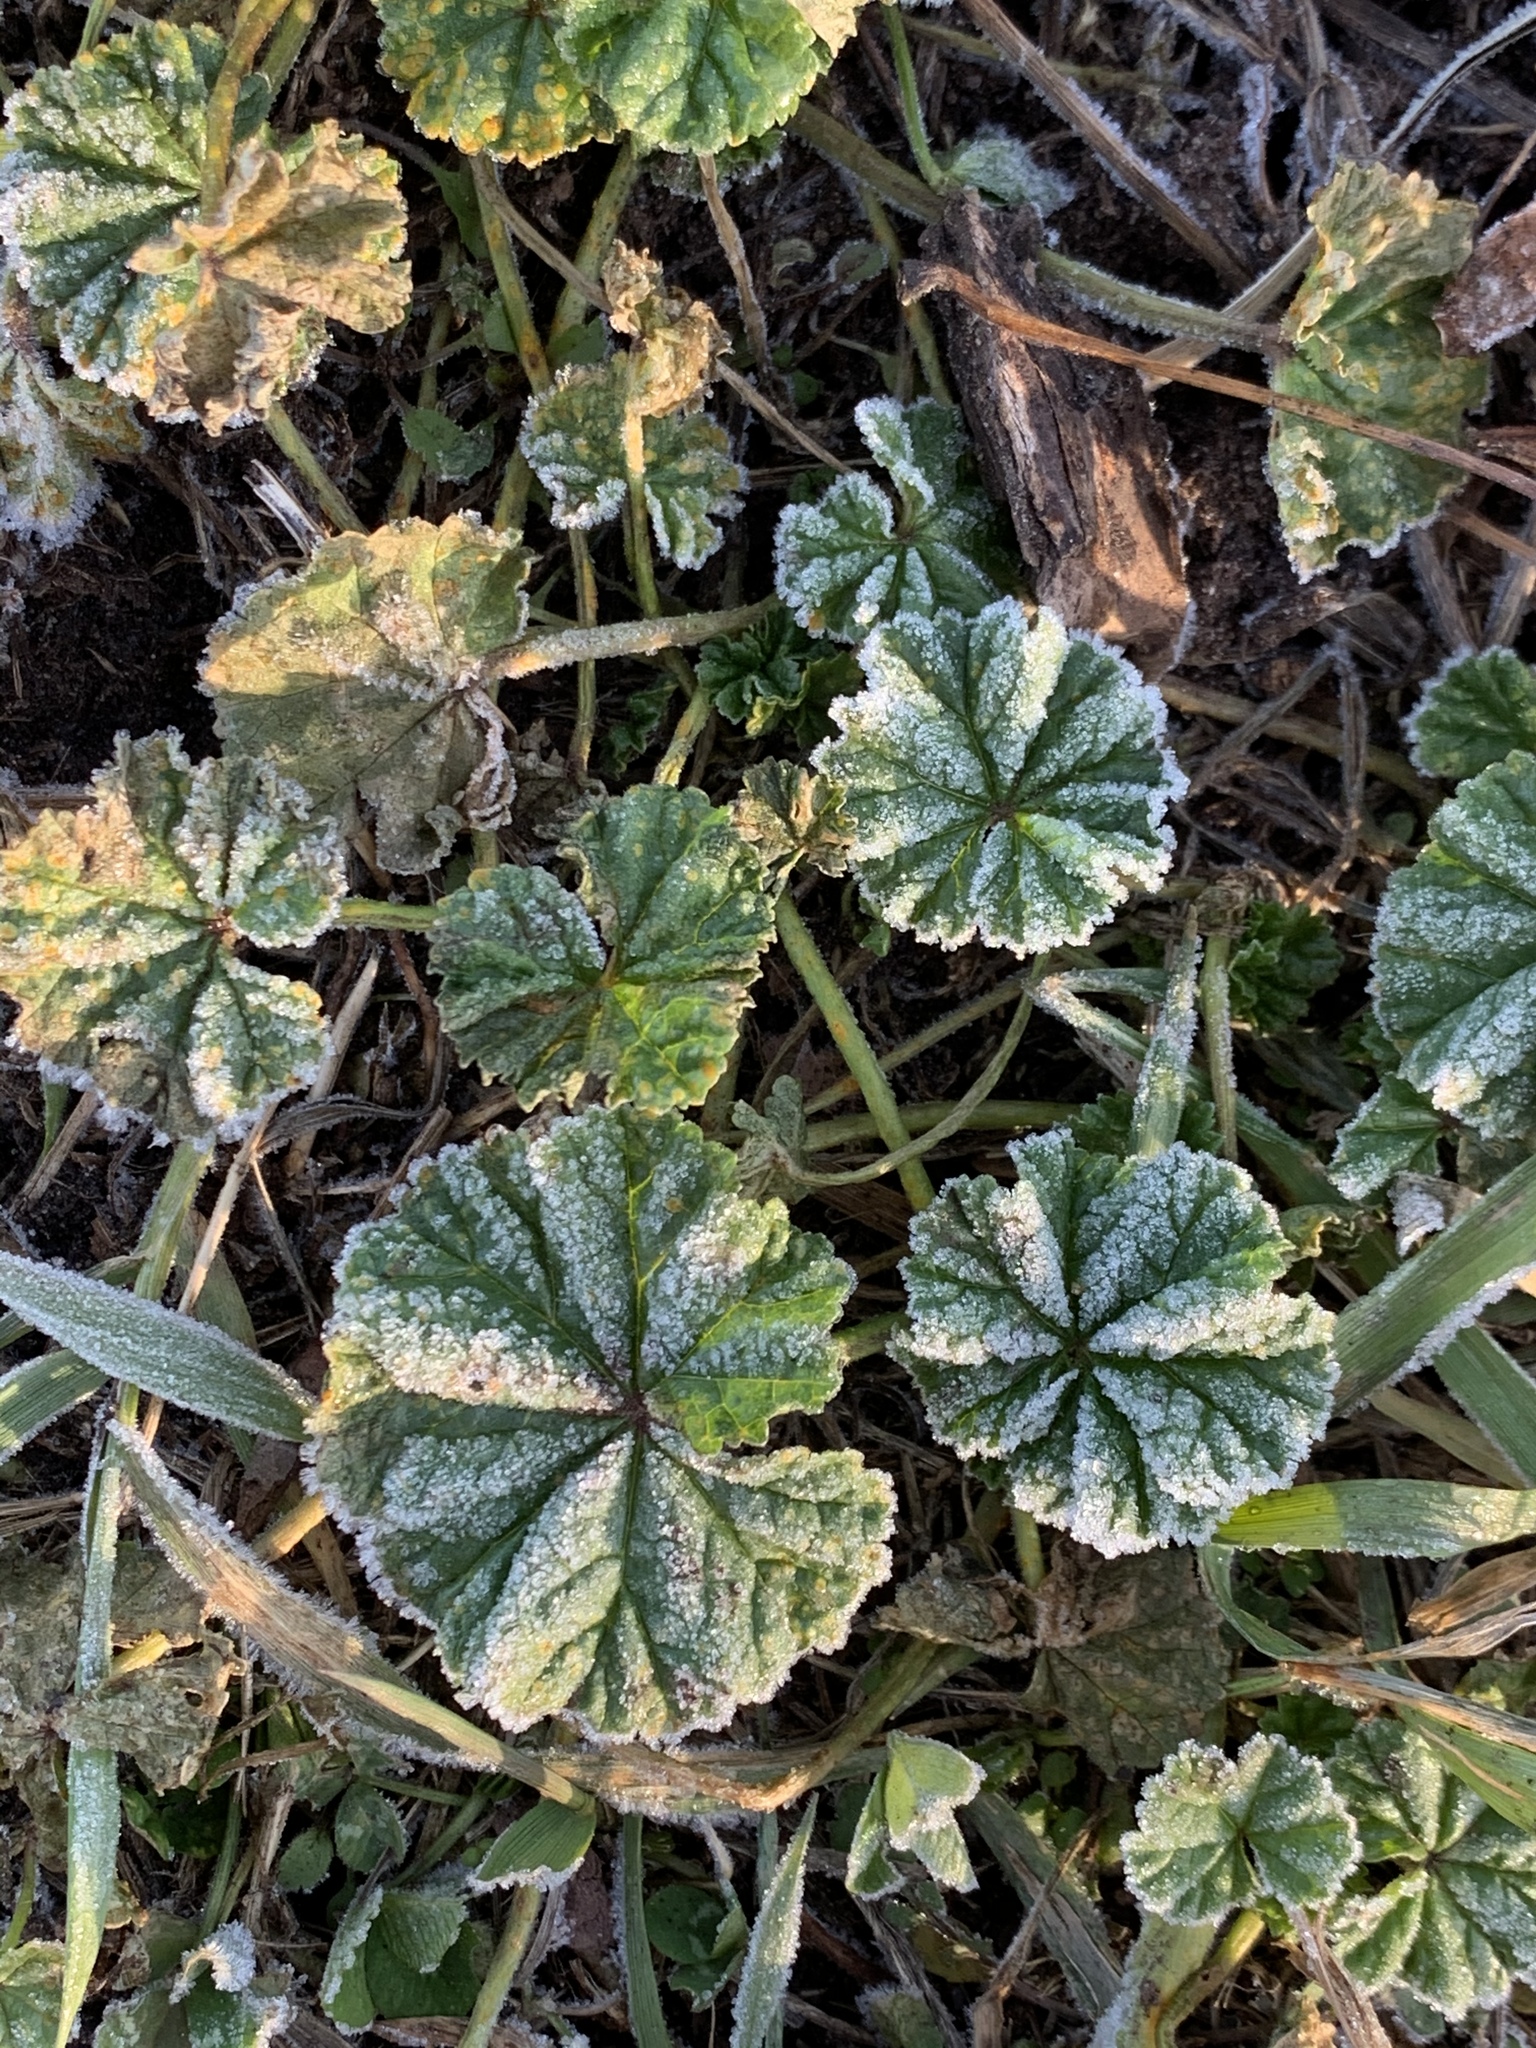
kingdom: Plantae
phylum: Tracheophyta
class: Magnoliopsida
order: Malvales
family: Malvaceae
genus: Malva
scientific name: Malva neglecta
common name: Common mallow
